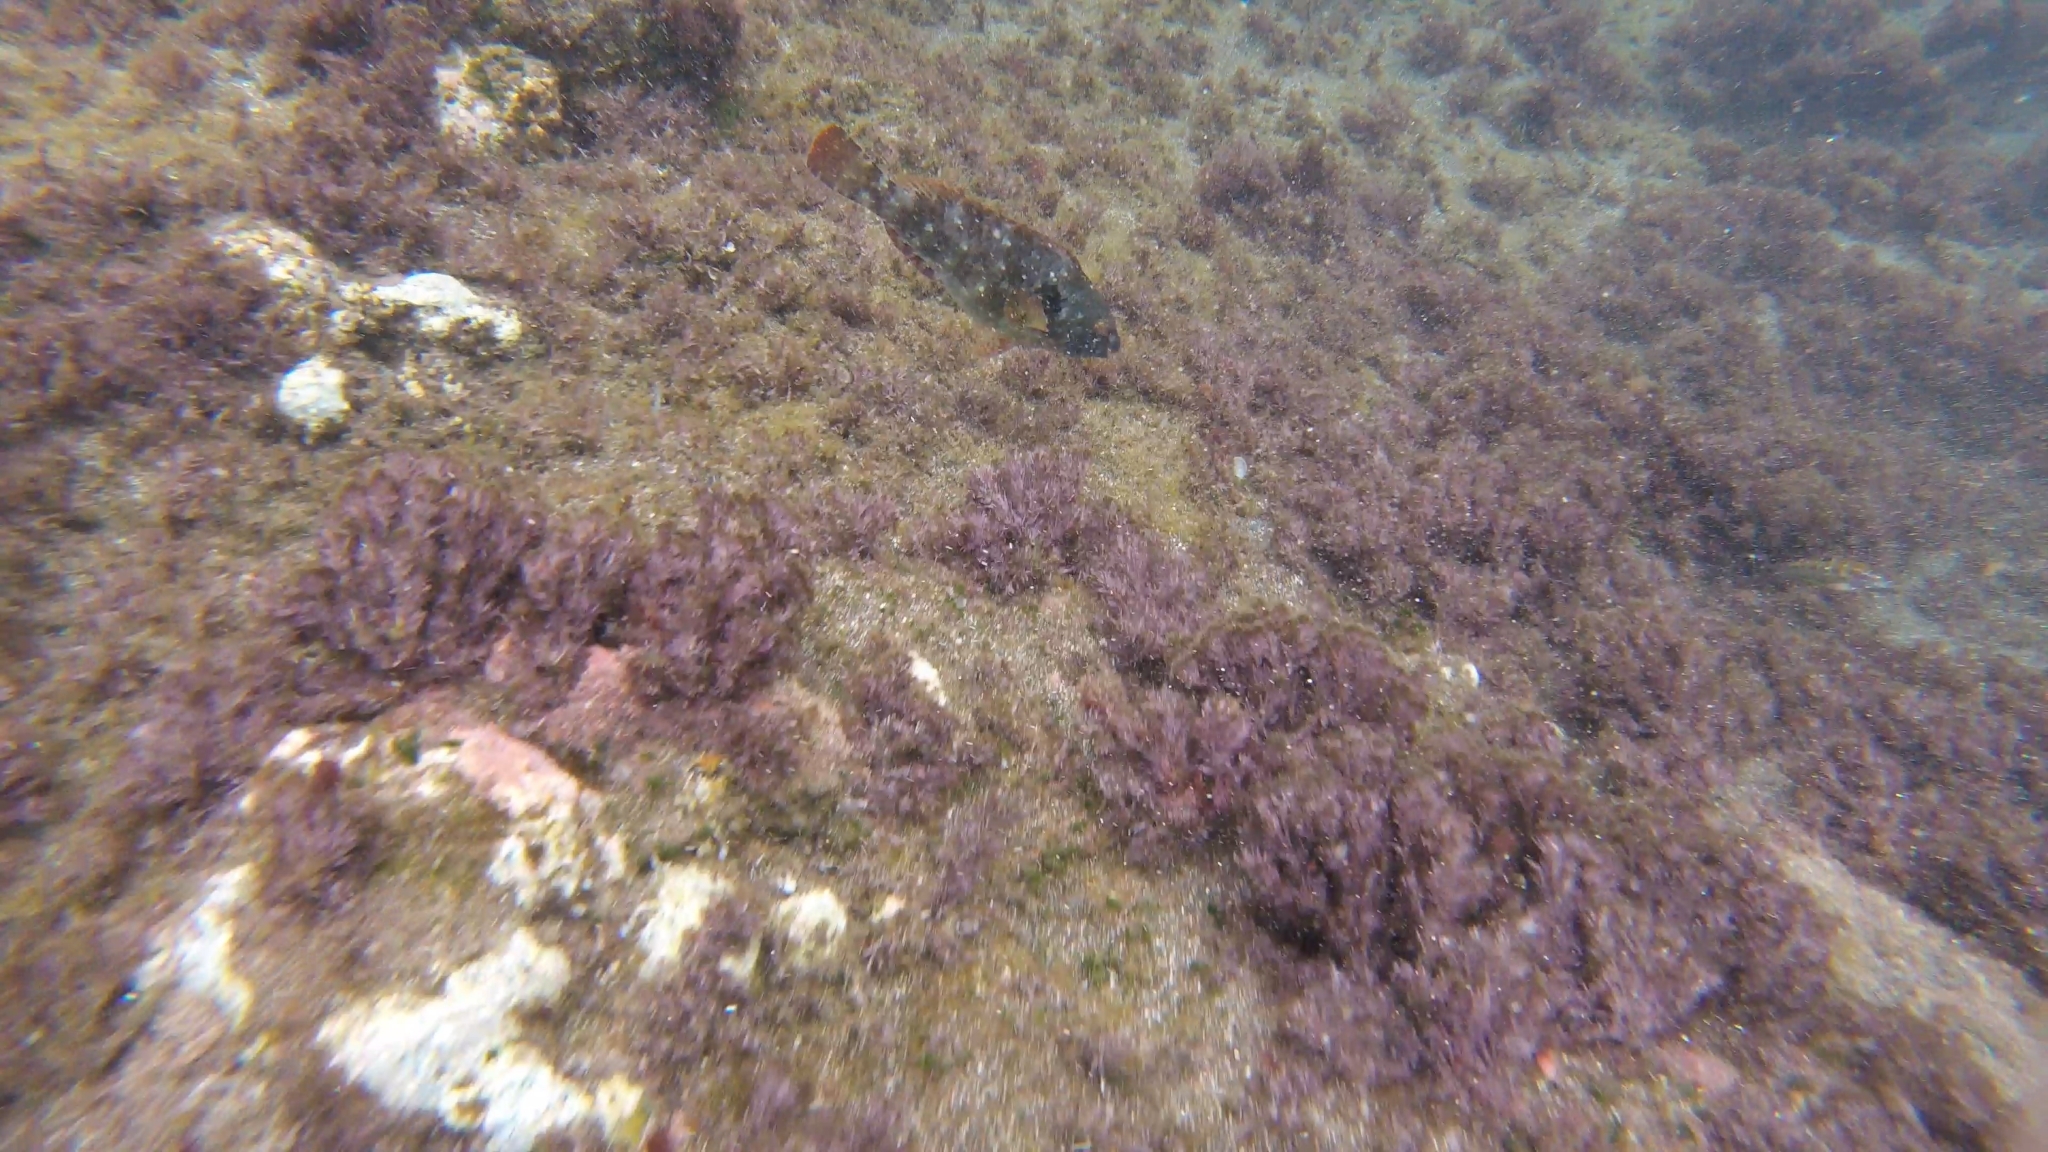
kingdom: Animalia
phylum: Chordata
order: Perciformes
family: Scaridae
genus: Sparisoma
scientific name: Sparisoma cretense
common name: Parrotfish
